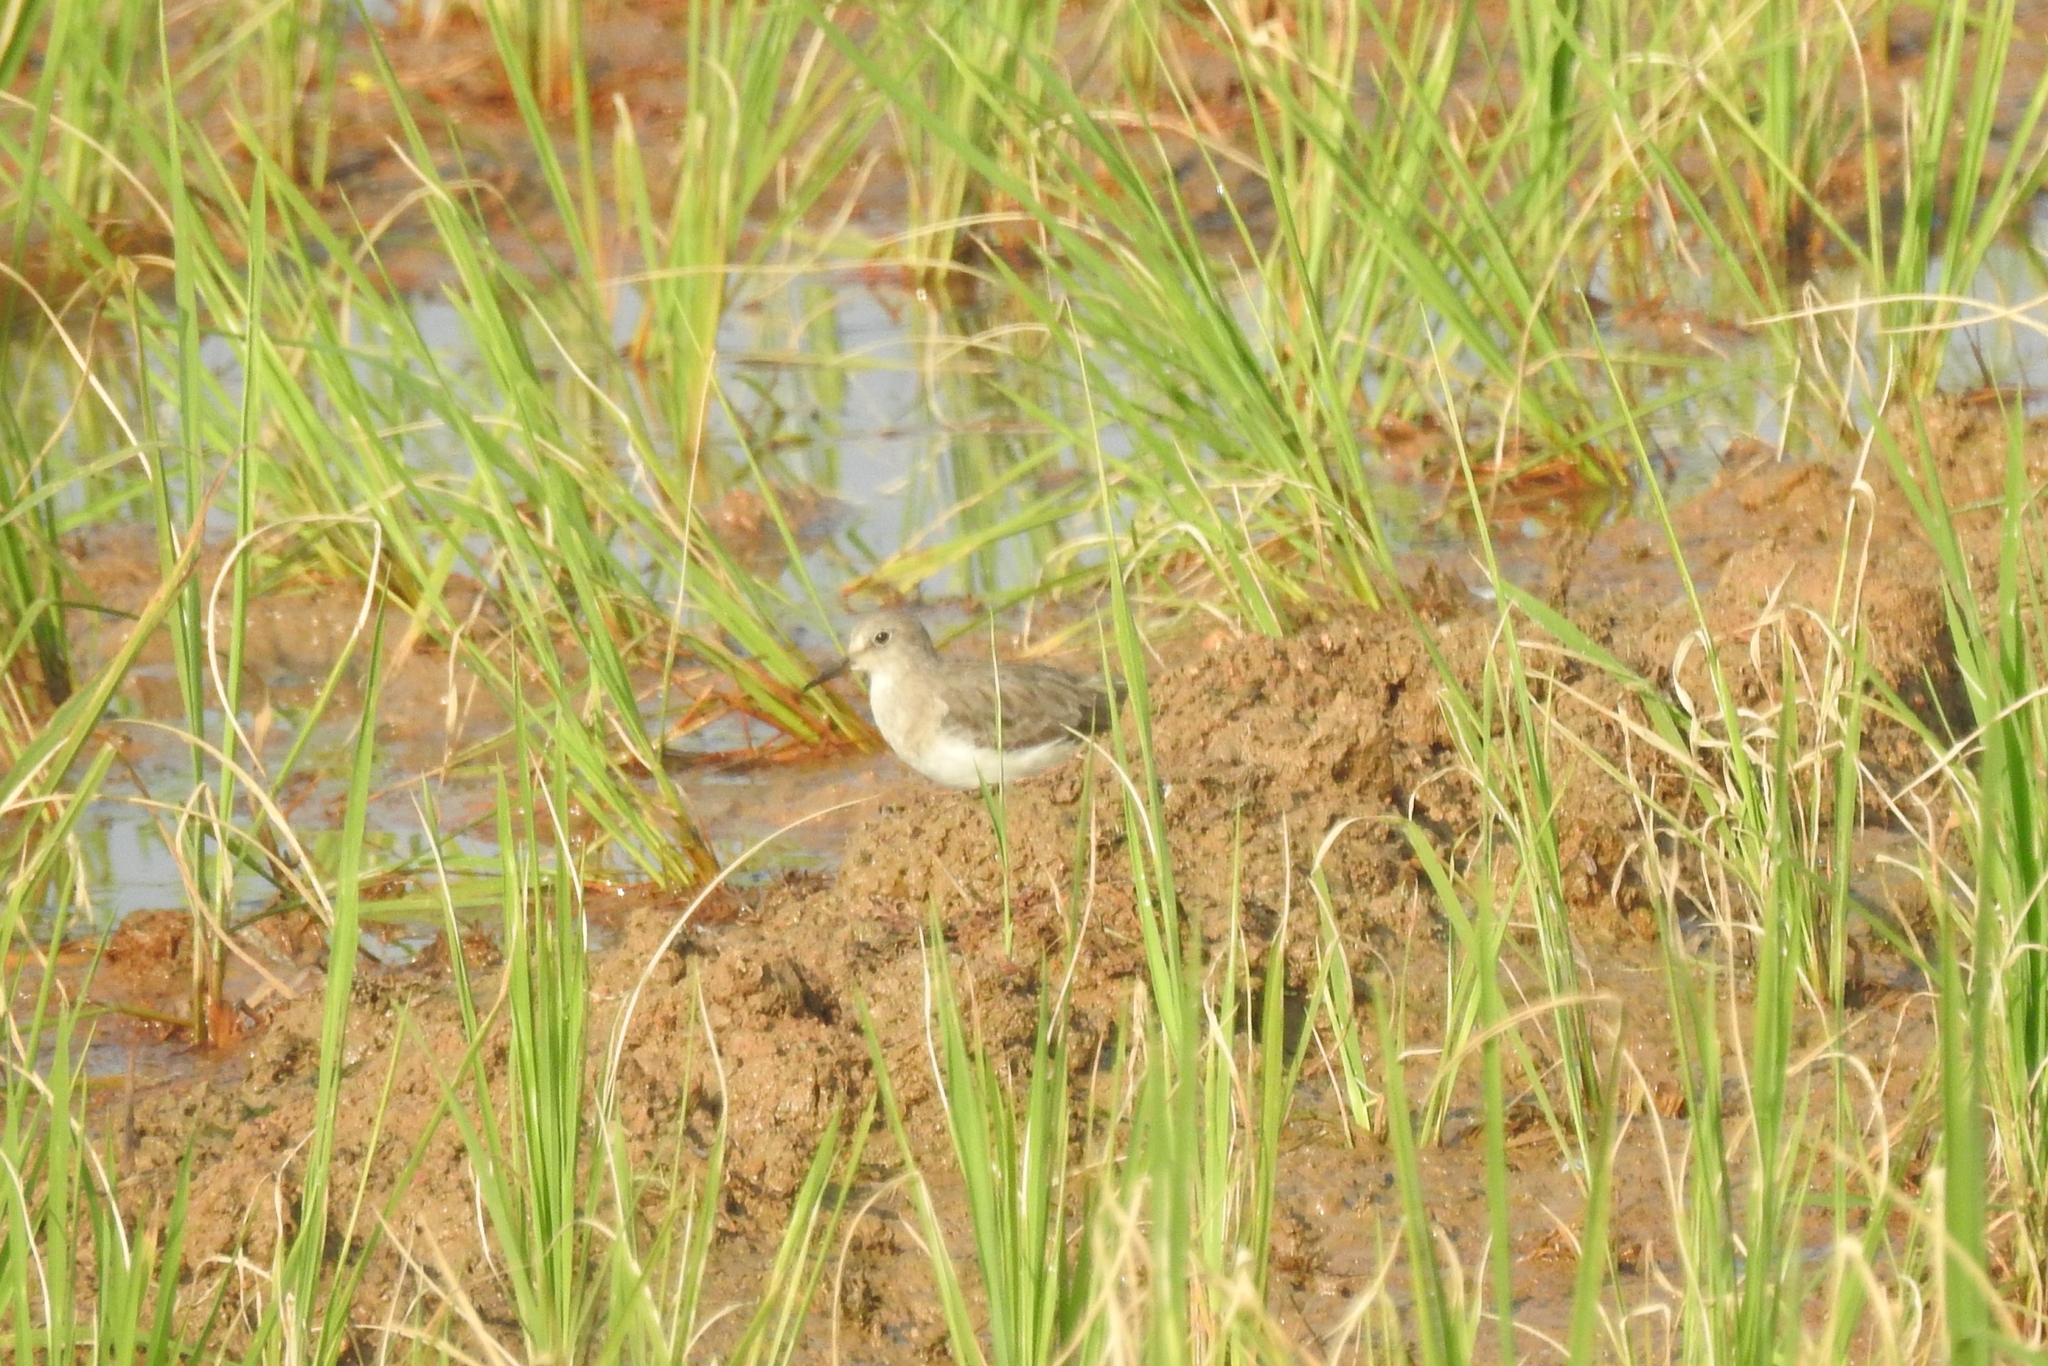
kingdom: Animalia
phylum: Chordata
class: Aves
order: Charadriiformes
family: Scolopacidae
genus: Calidris
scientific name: Calidris temminckii
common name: Temminck's stint
